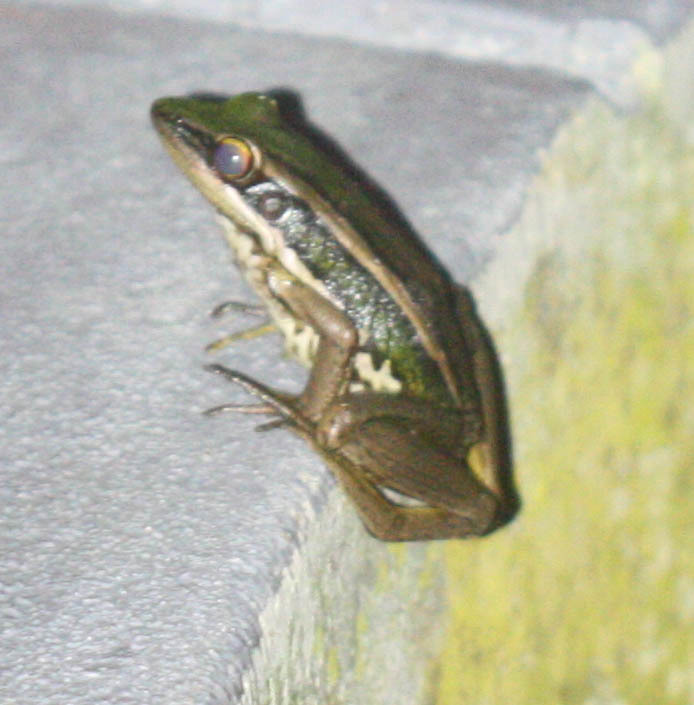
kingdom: Animalia
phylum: Chordata
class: Amphibia
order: Anura
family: Ranidae
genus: Hylarana
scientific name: Hylarana erythraea
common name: Common green frog/green paddy frog/leaf frog
